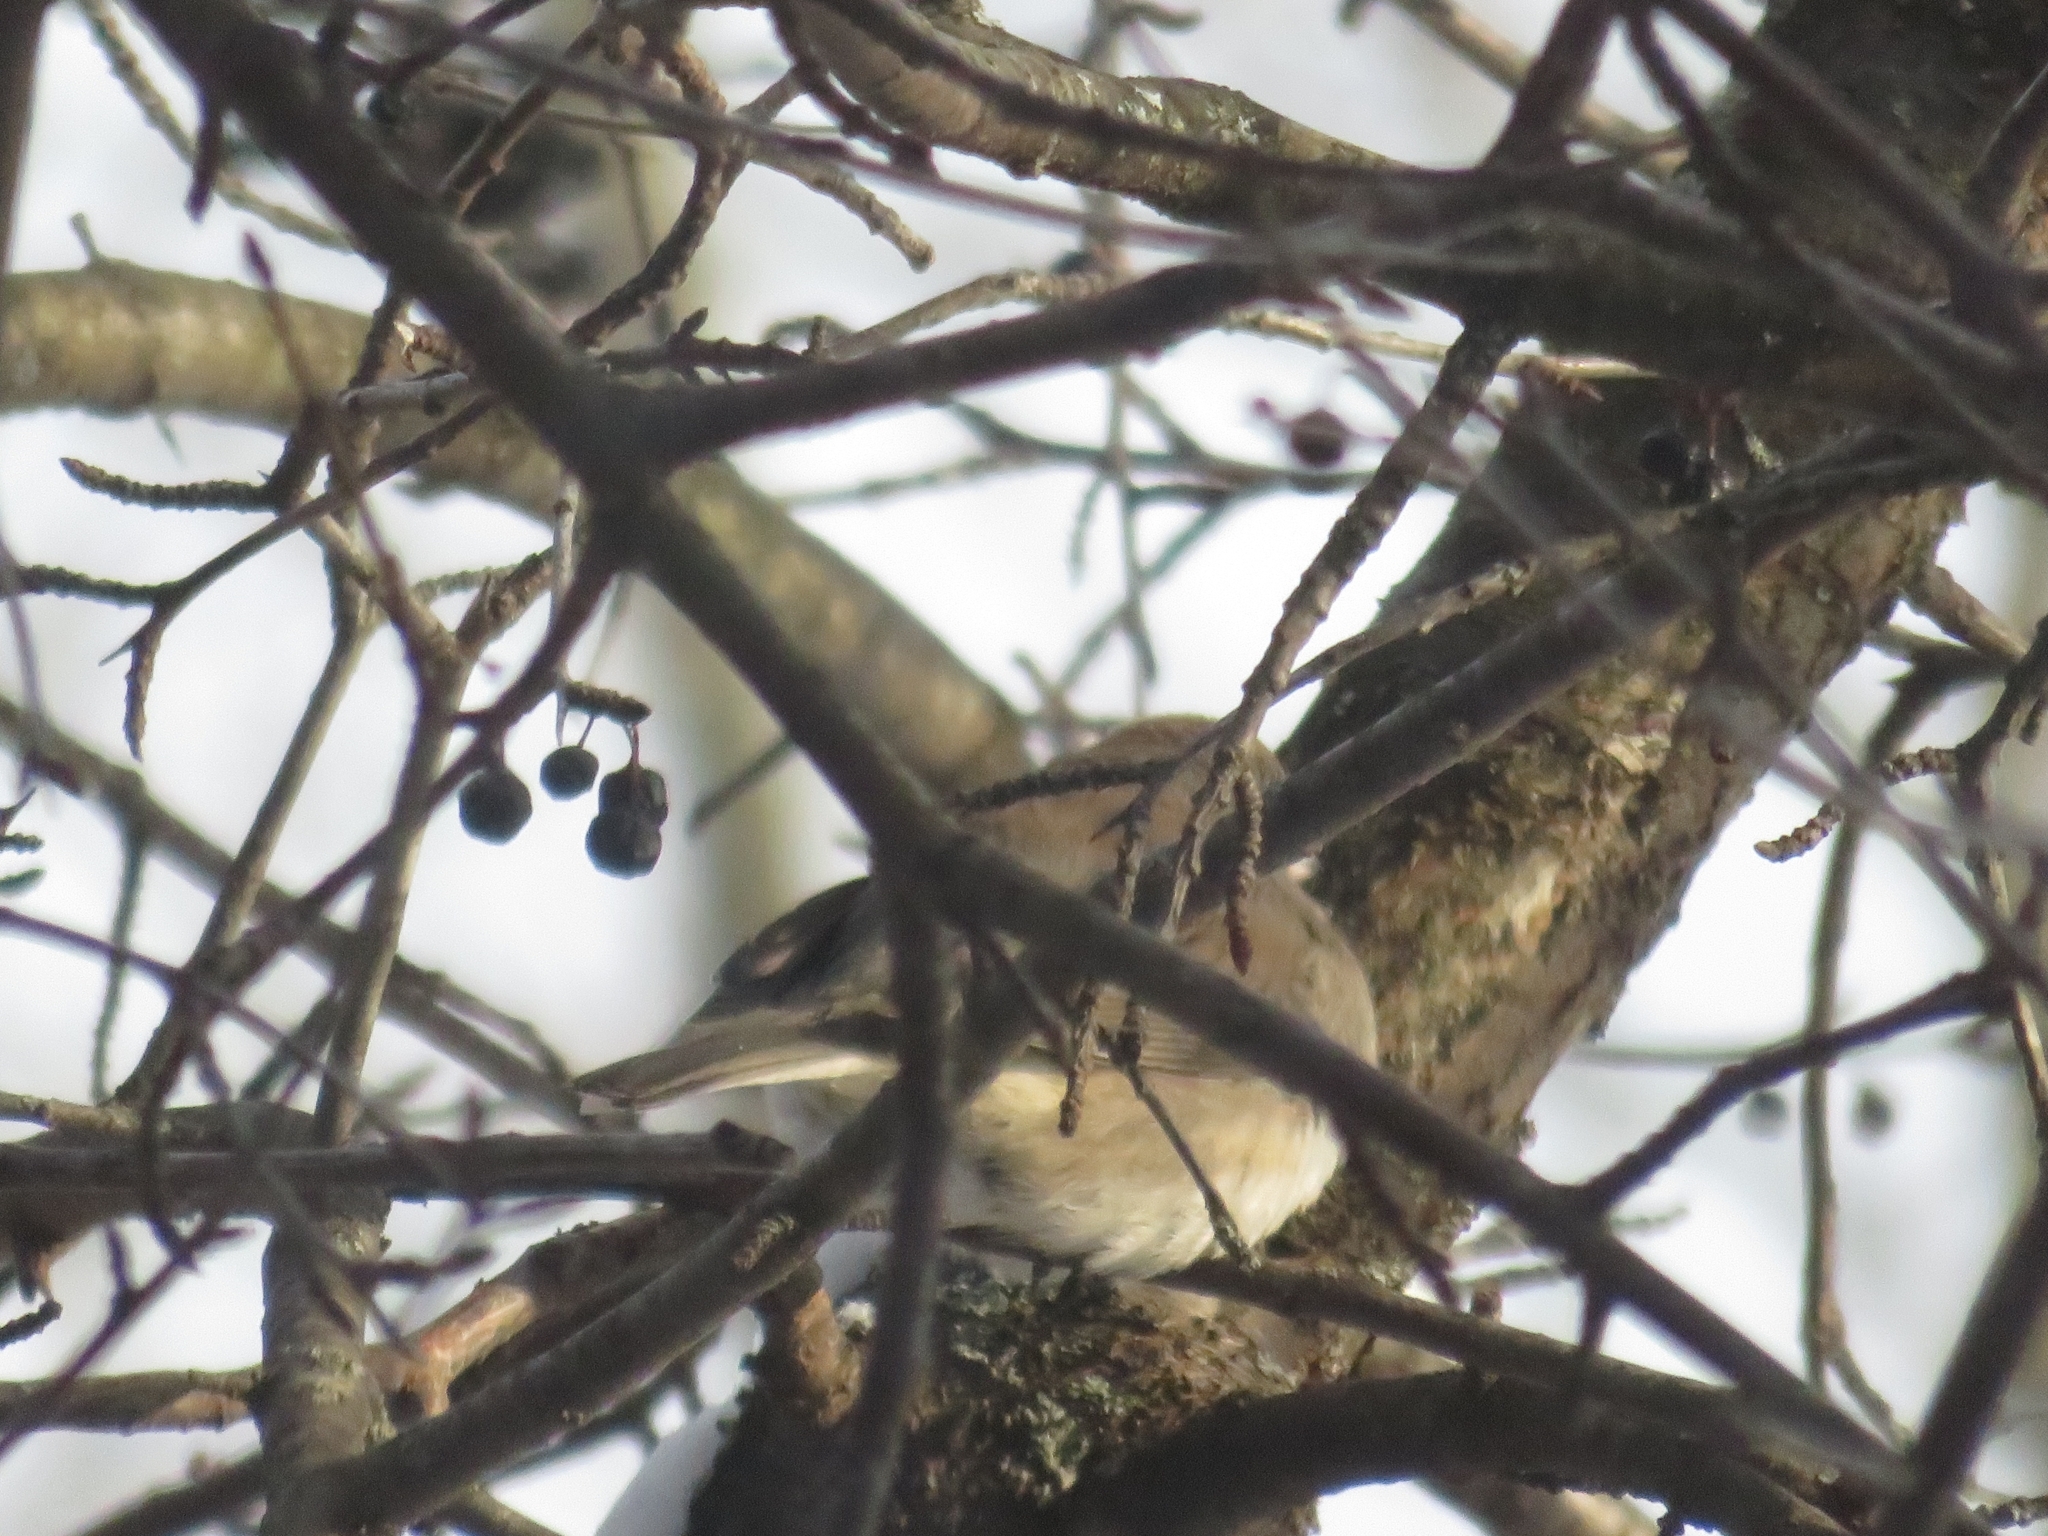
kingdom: Animalia
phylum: Chordata
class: Aves
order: Passeriformes
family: Passerellidae
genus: Junco
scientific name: Junco hyemalis
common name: Dark-eyed junco
